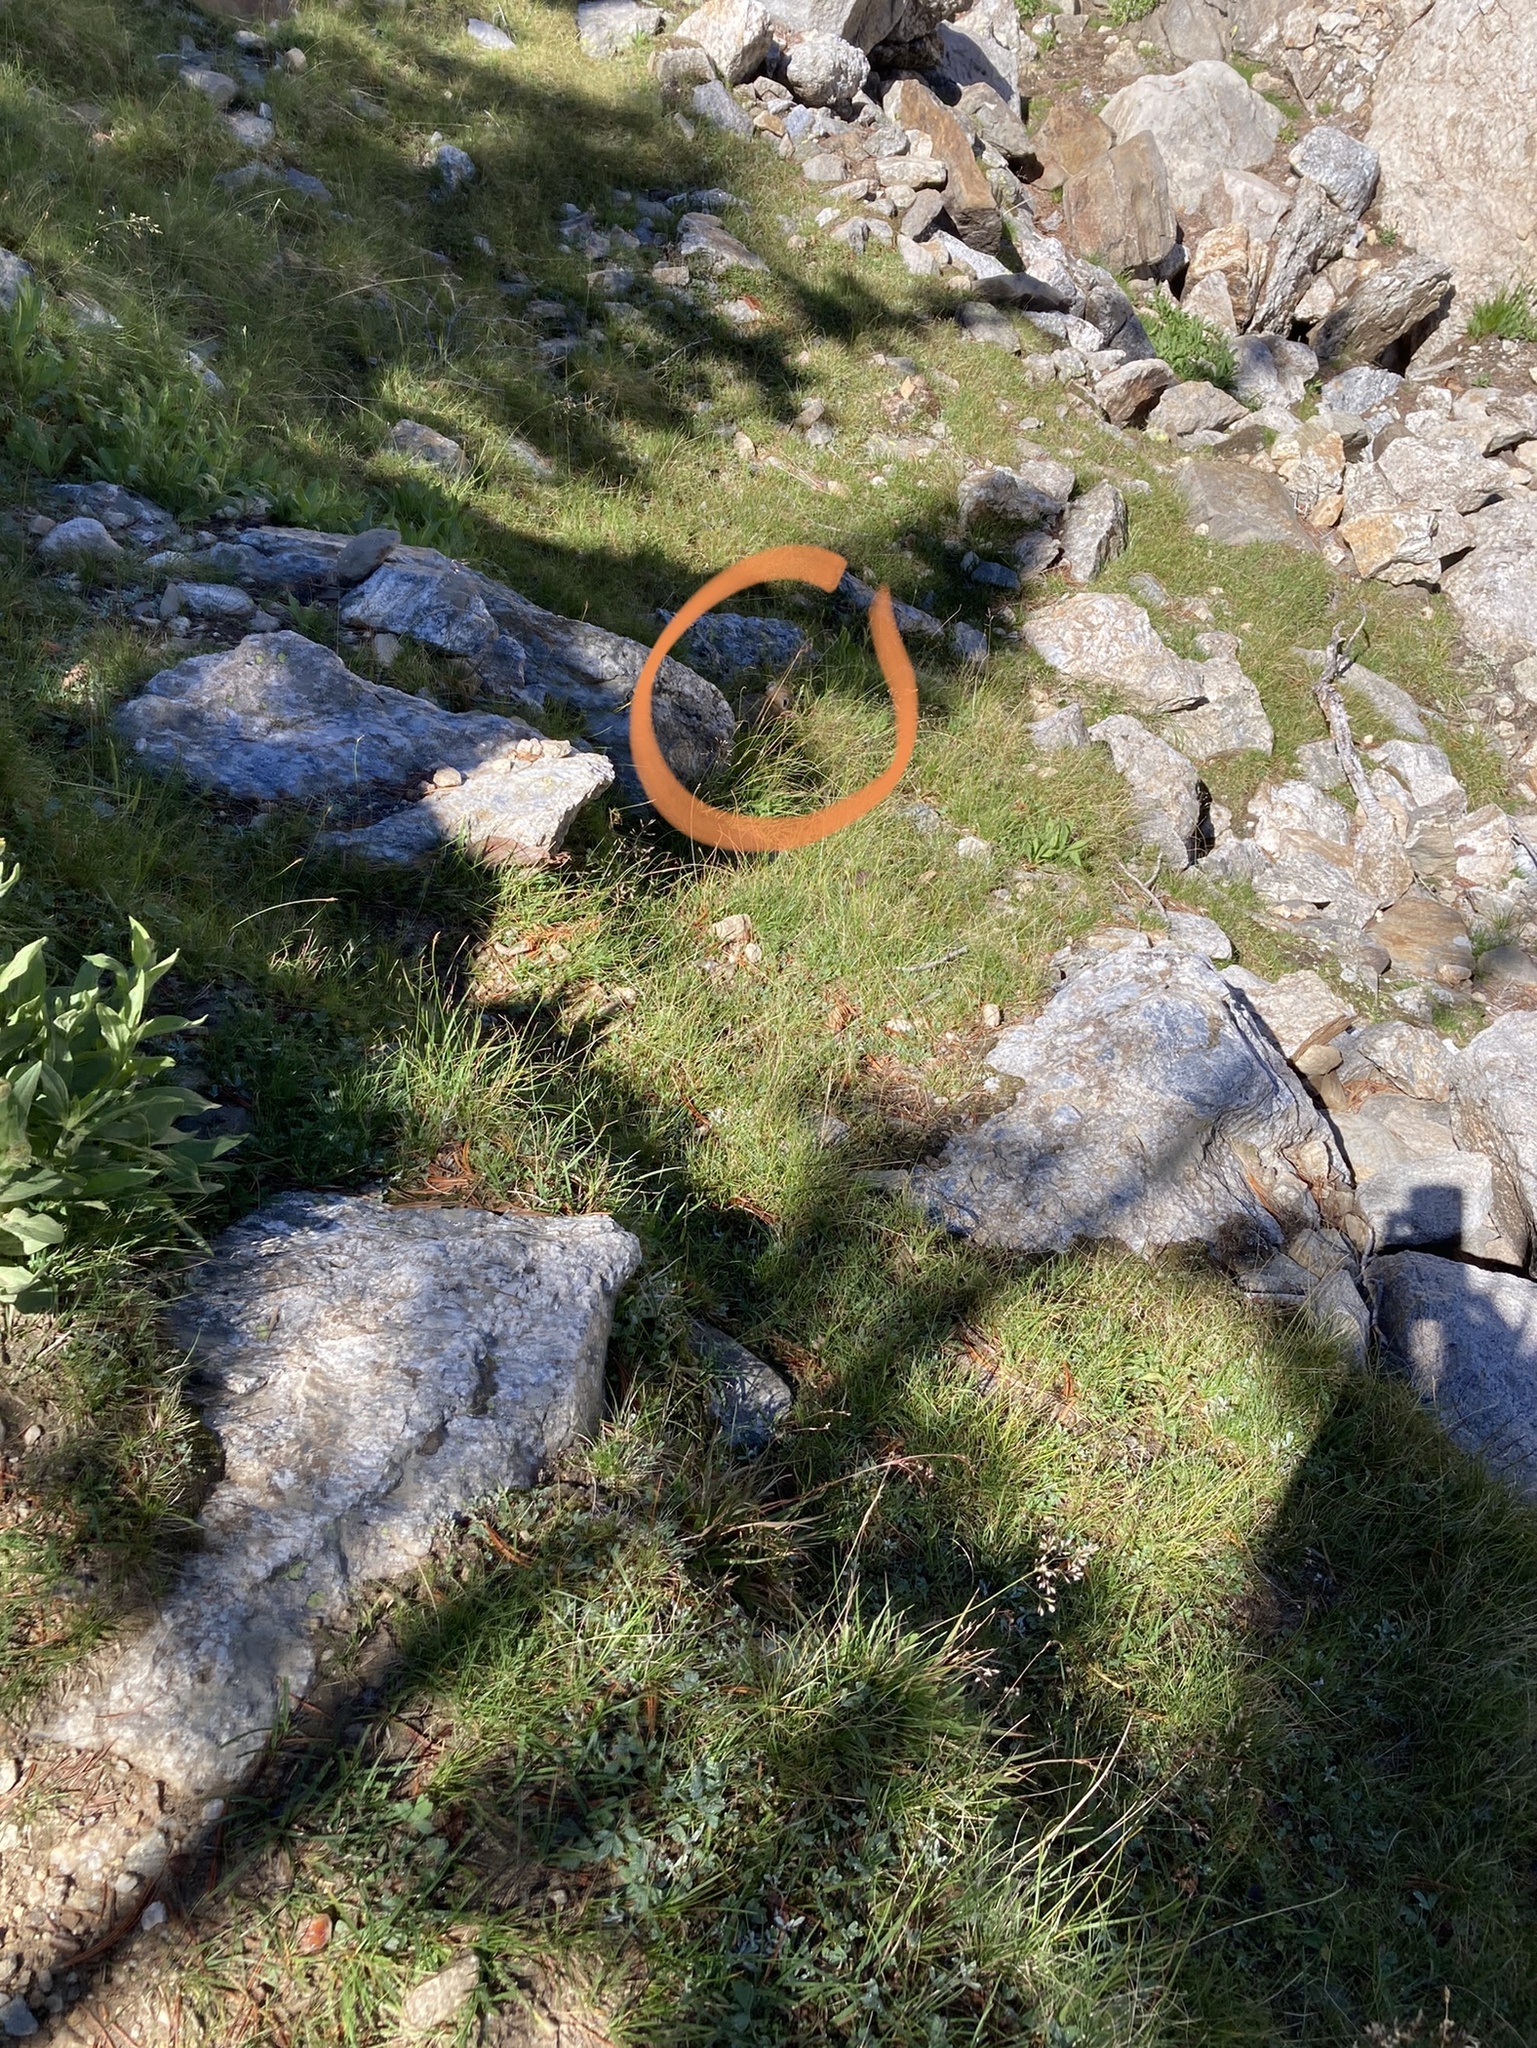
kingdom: Animalia
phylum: Chordata
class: Mammalia
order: Lagomorpha
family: Ochotonidae
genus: Ochotona
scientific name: Ochotona princeps
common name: American pika
